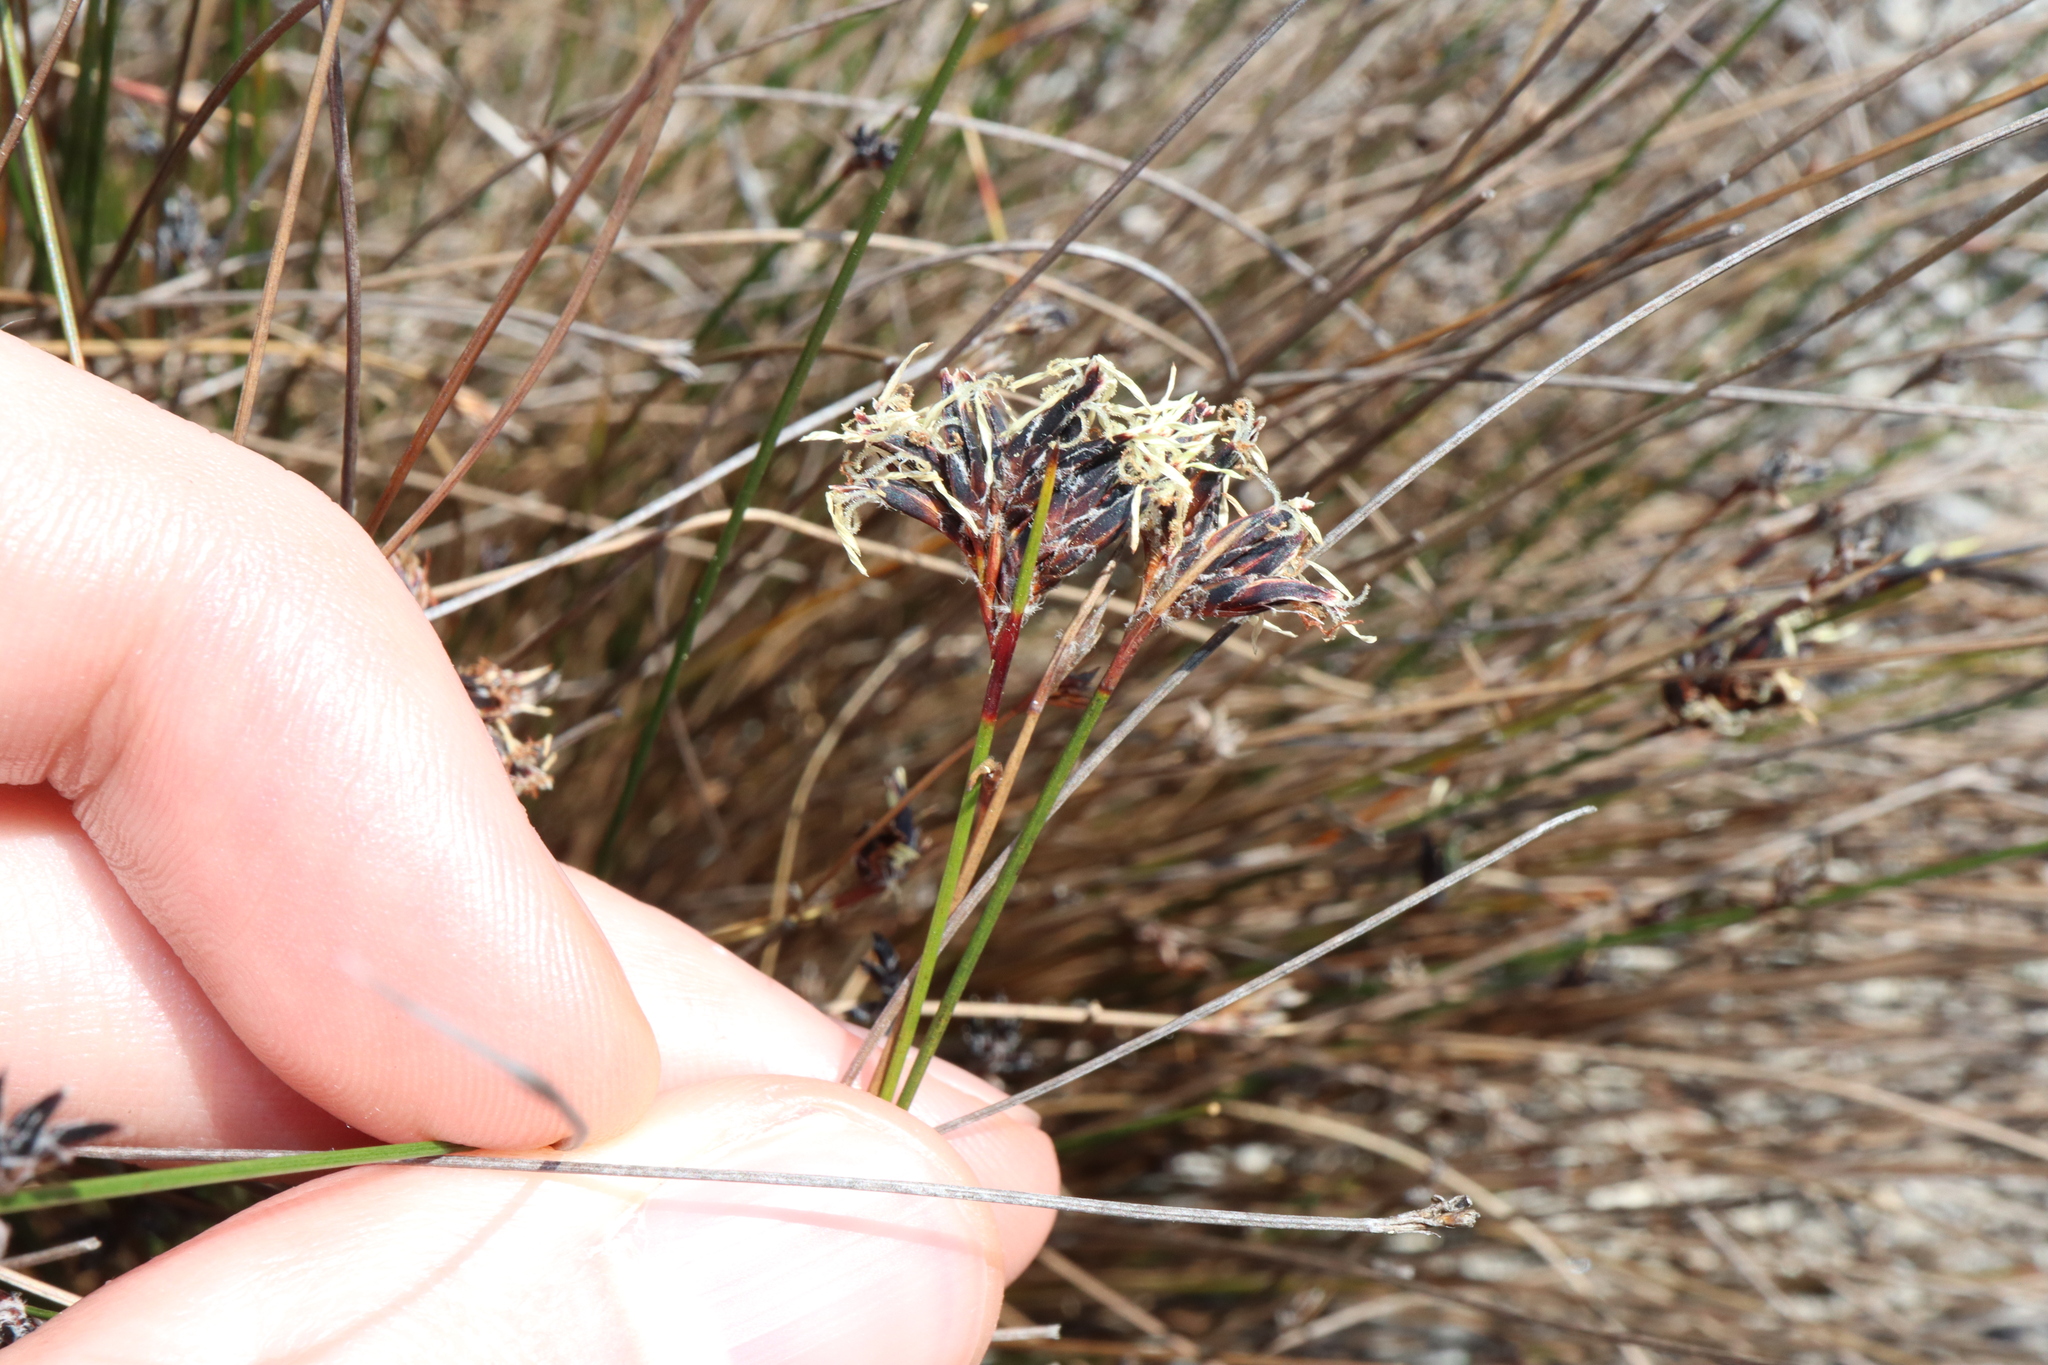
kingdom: Plantae
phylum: Tracheophyta
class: Liliopsida
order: Poales
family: Cyperaceae
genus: Schoenus
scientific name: Schoenus ericetorum
